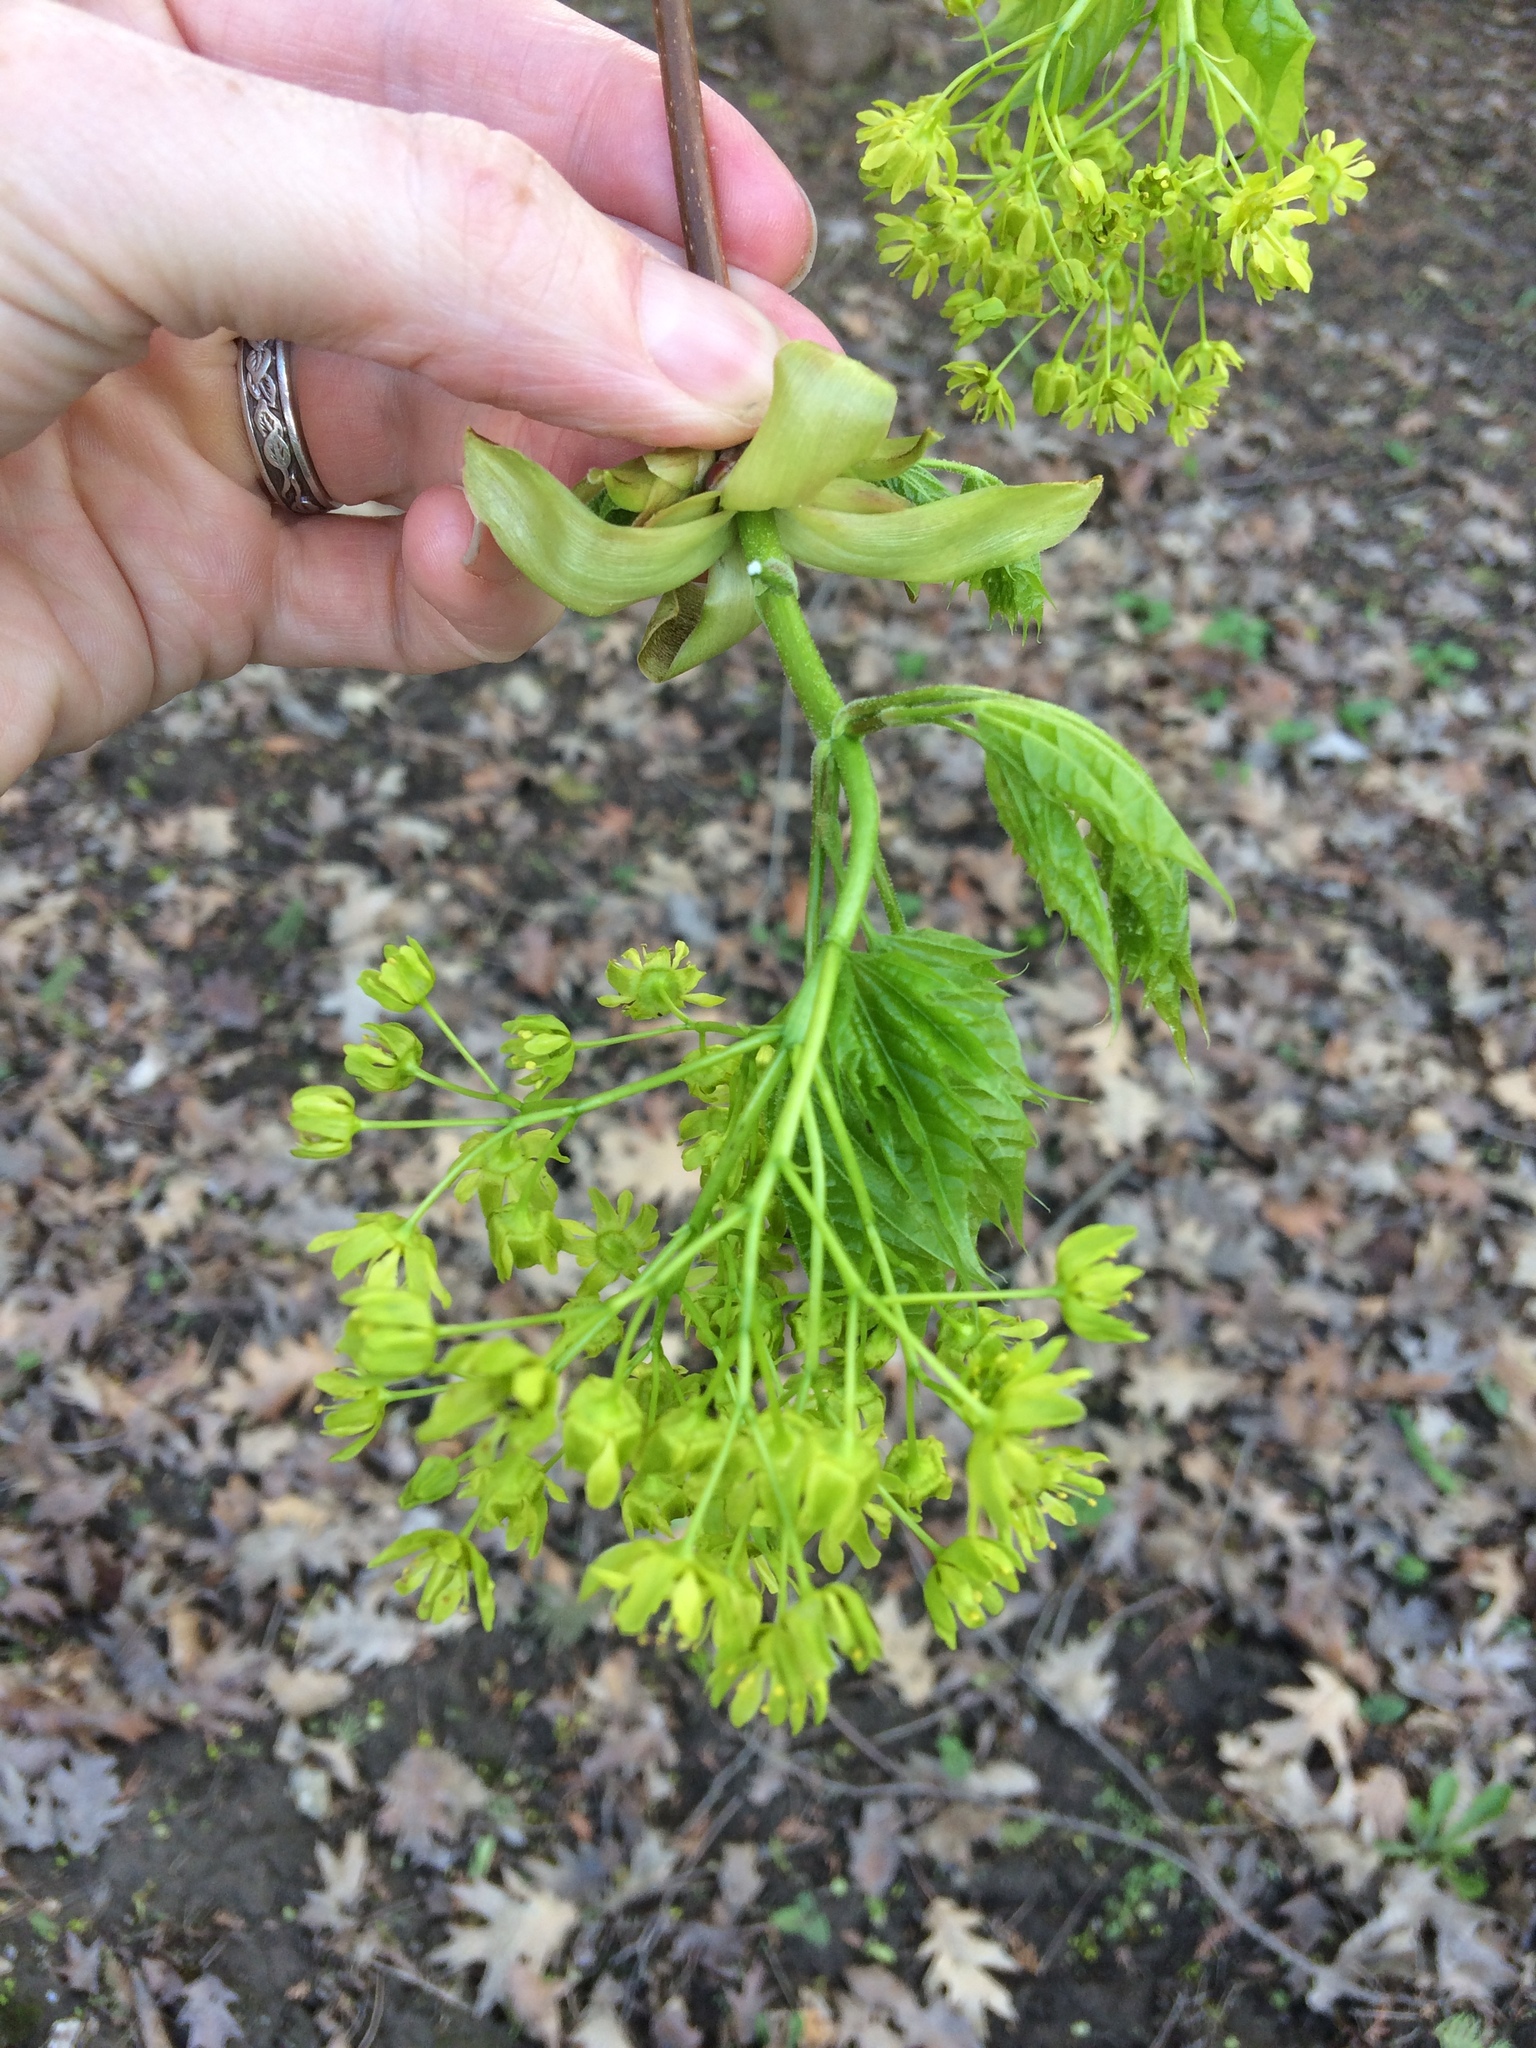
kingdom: Plantae
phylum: Tracheophyta
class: Magnoliopsida
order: Sapindales
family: Sapindaceae
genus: Acer
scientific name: Acer platanoides
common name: Norway maple
